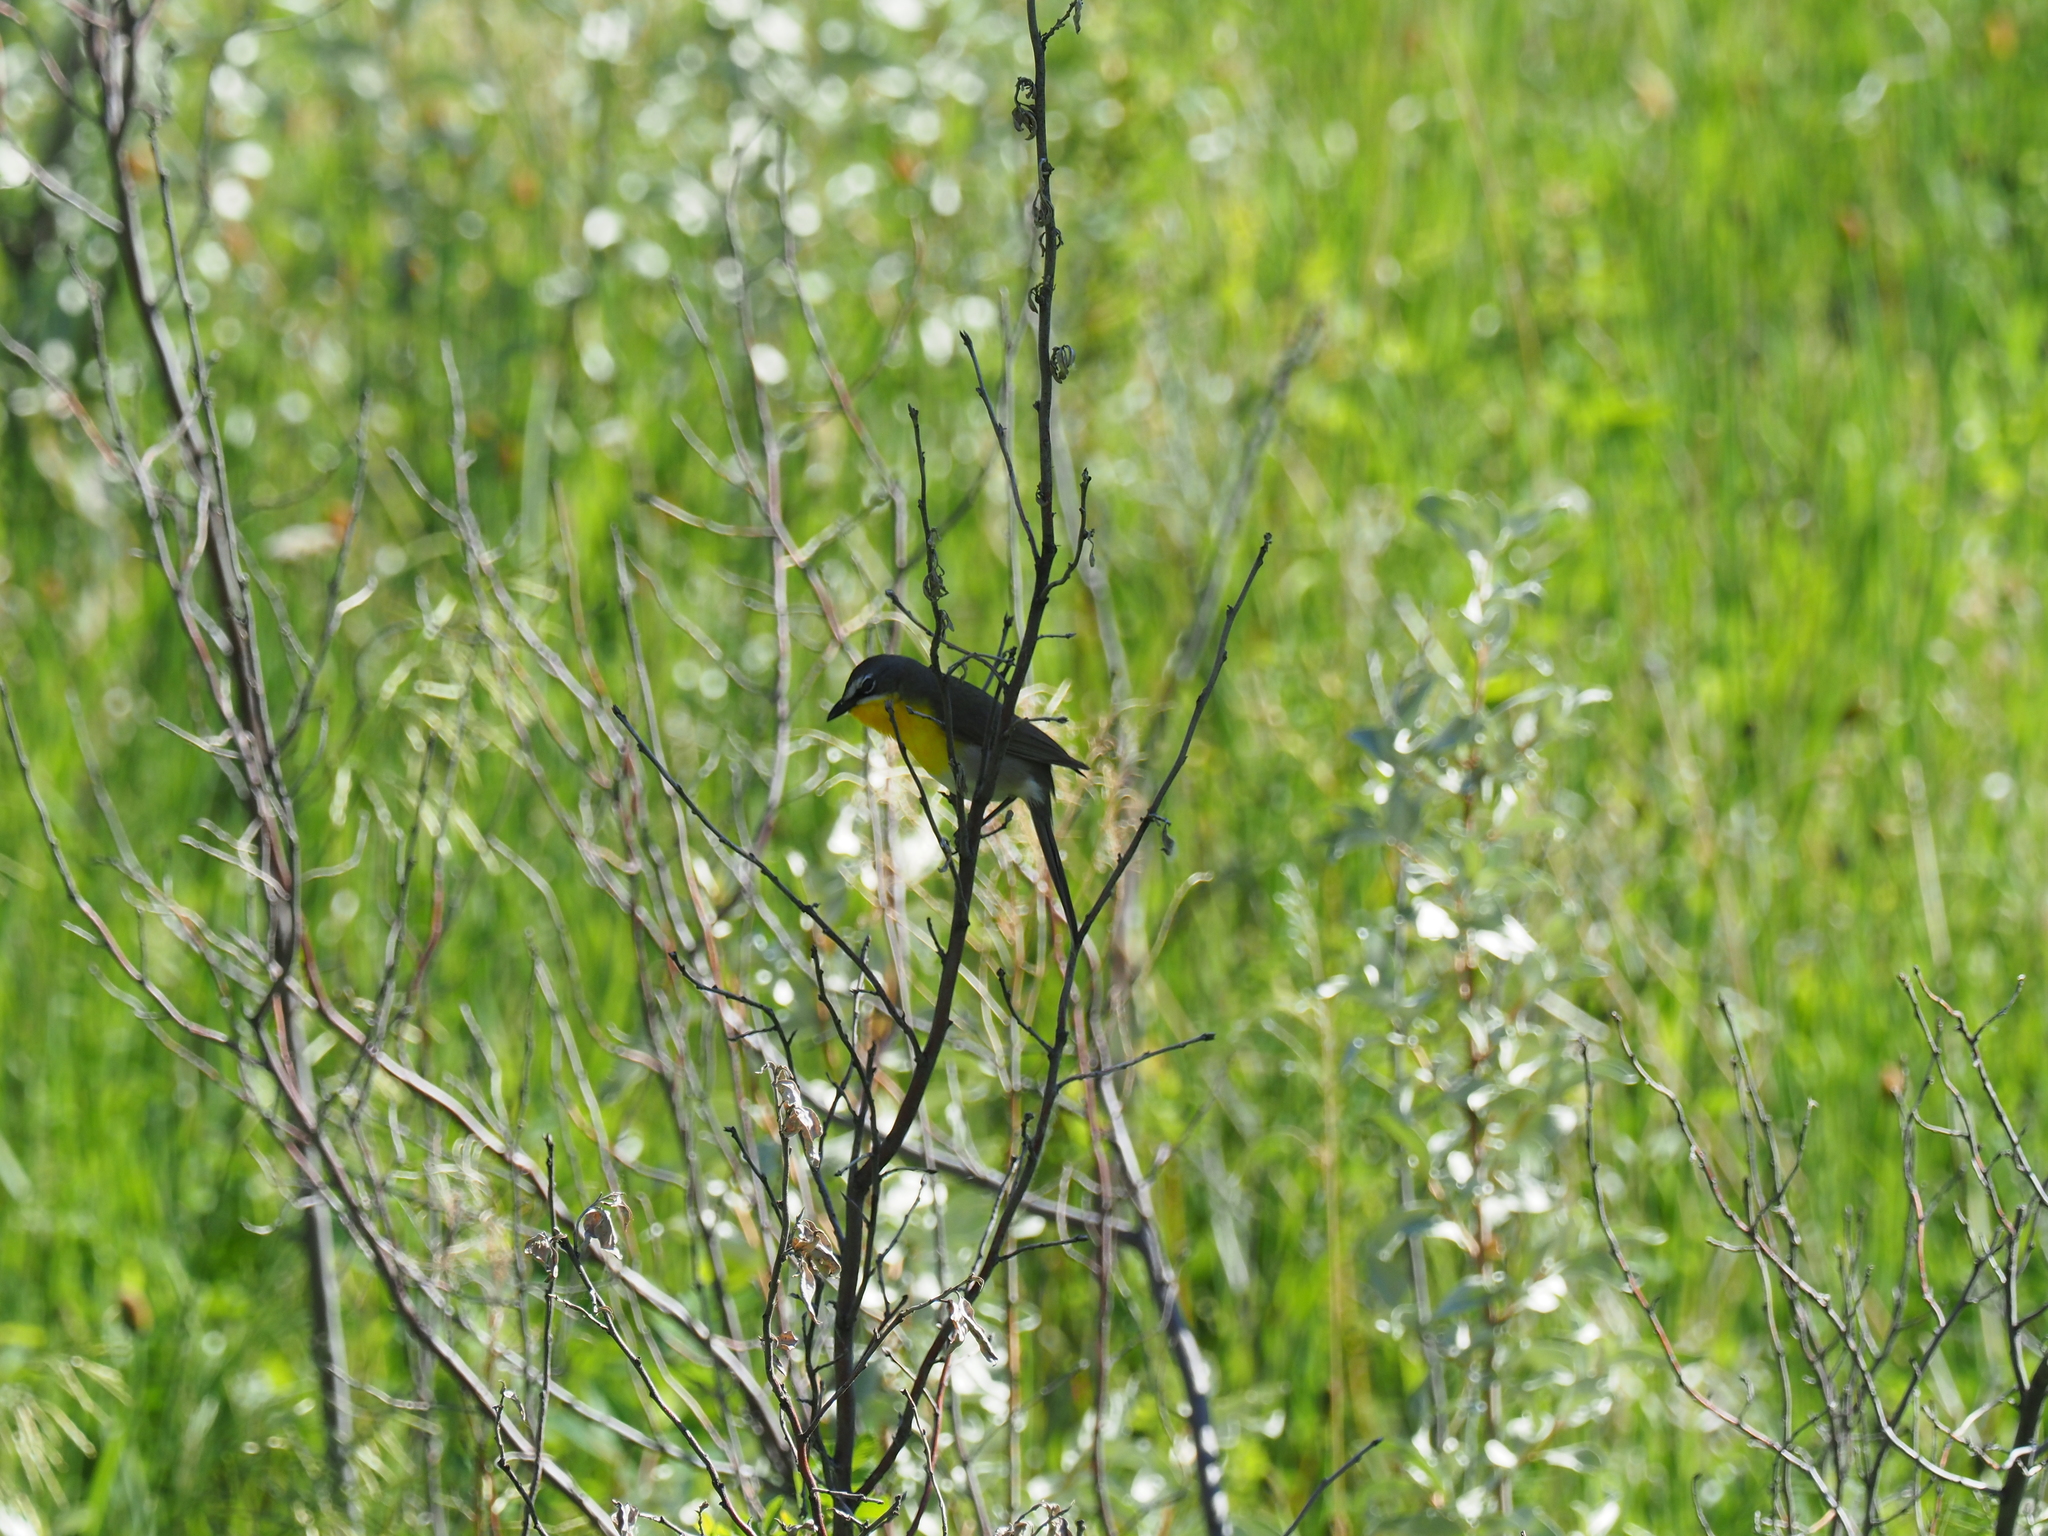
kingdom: Animalia
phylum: Chordata
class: Aves
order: Passeriformes
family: Parulidae
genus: Icteria
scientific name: Icteria virens
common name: Yellow-breasted chat
